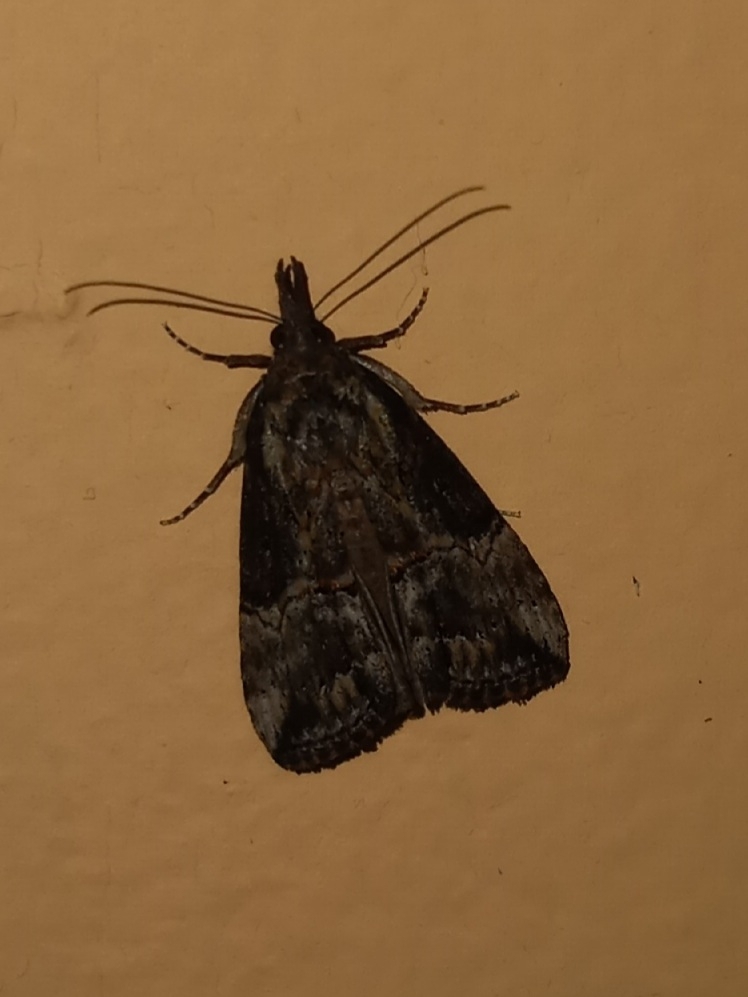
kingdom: Animalia
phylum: Arthropoda
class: Insecta
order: Lepidoptera
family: Erebidae
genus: Hypena
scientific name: Hypena scabra
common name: Green cloverworm
